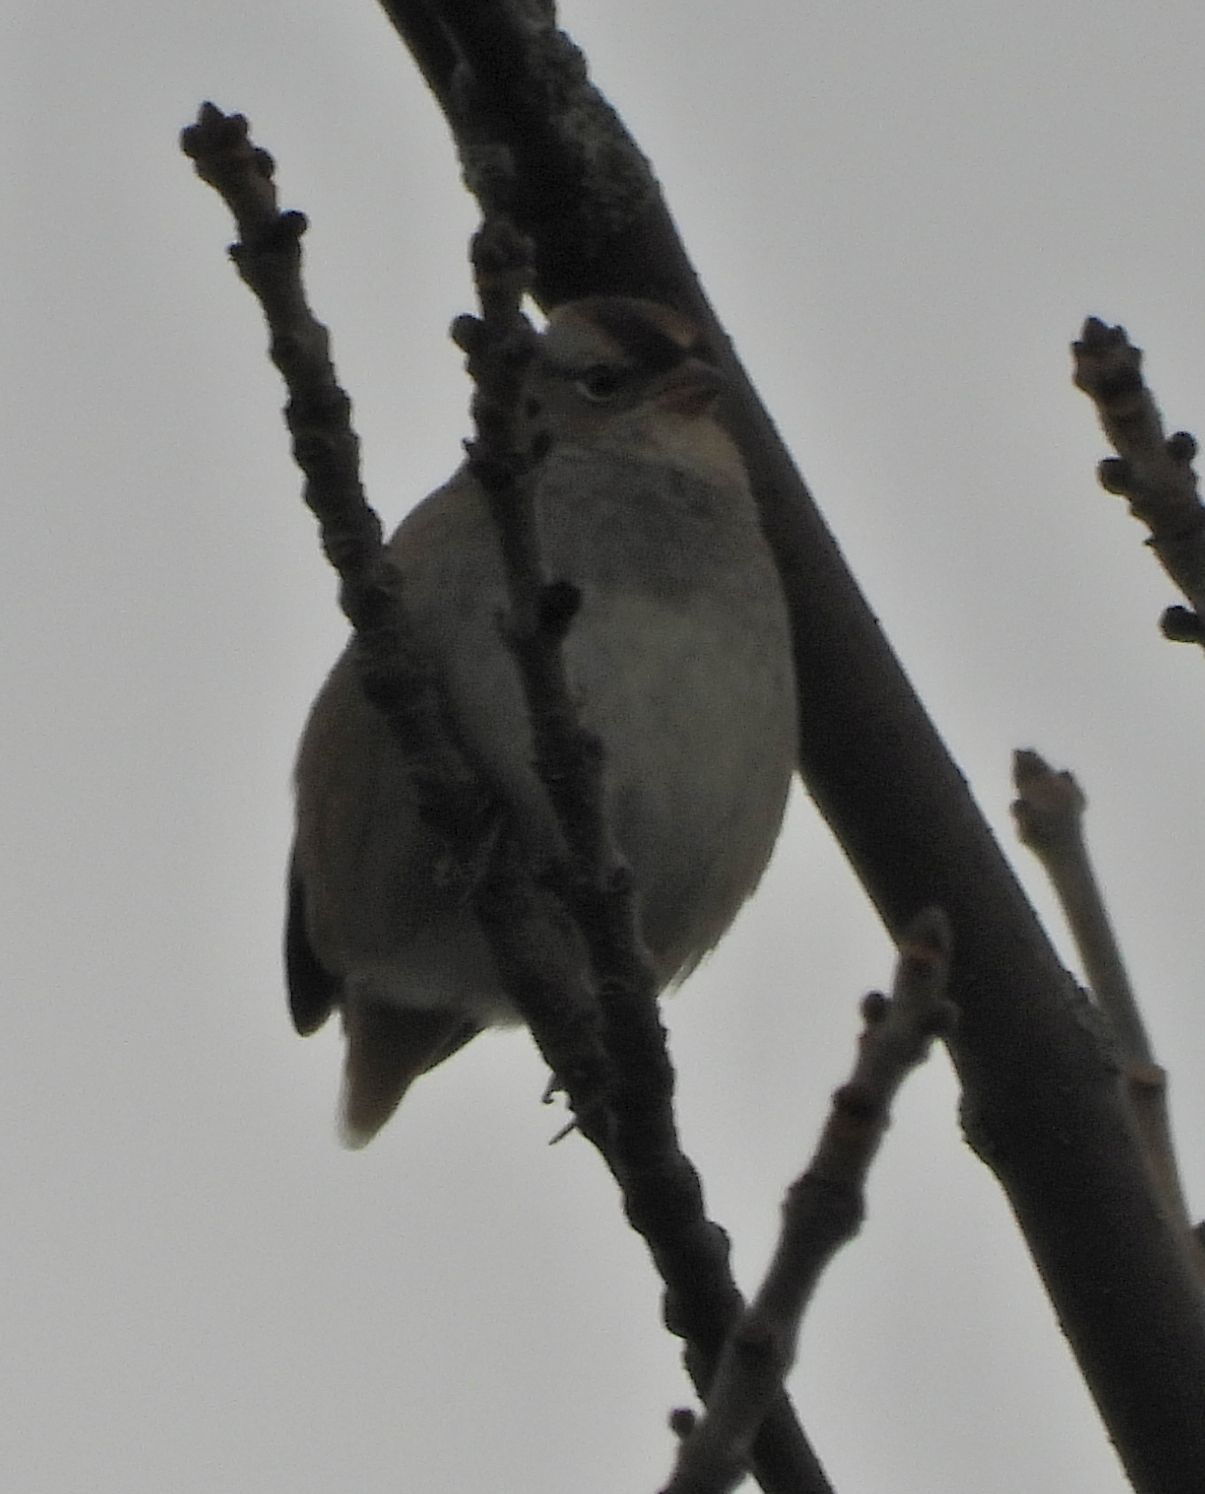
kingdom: Animalia
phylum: Chordata
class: Aves
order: Passeriformes
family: Passerellidae
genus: Zonotrichia
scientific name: Zonotrichia leucophrys
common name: White-crowned sparrow
